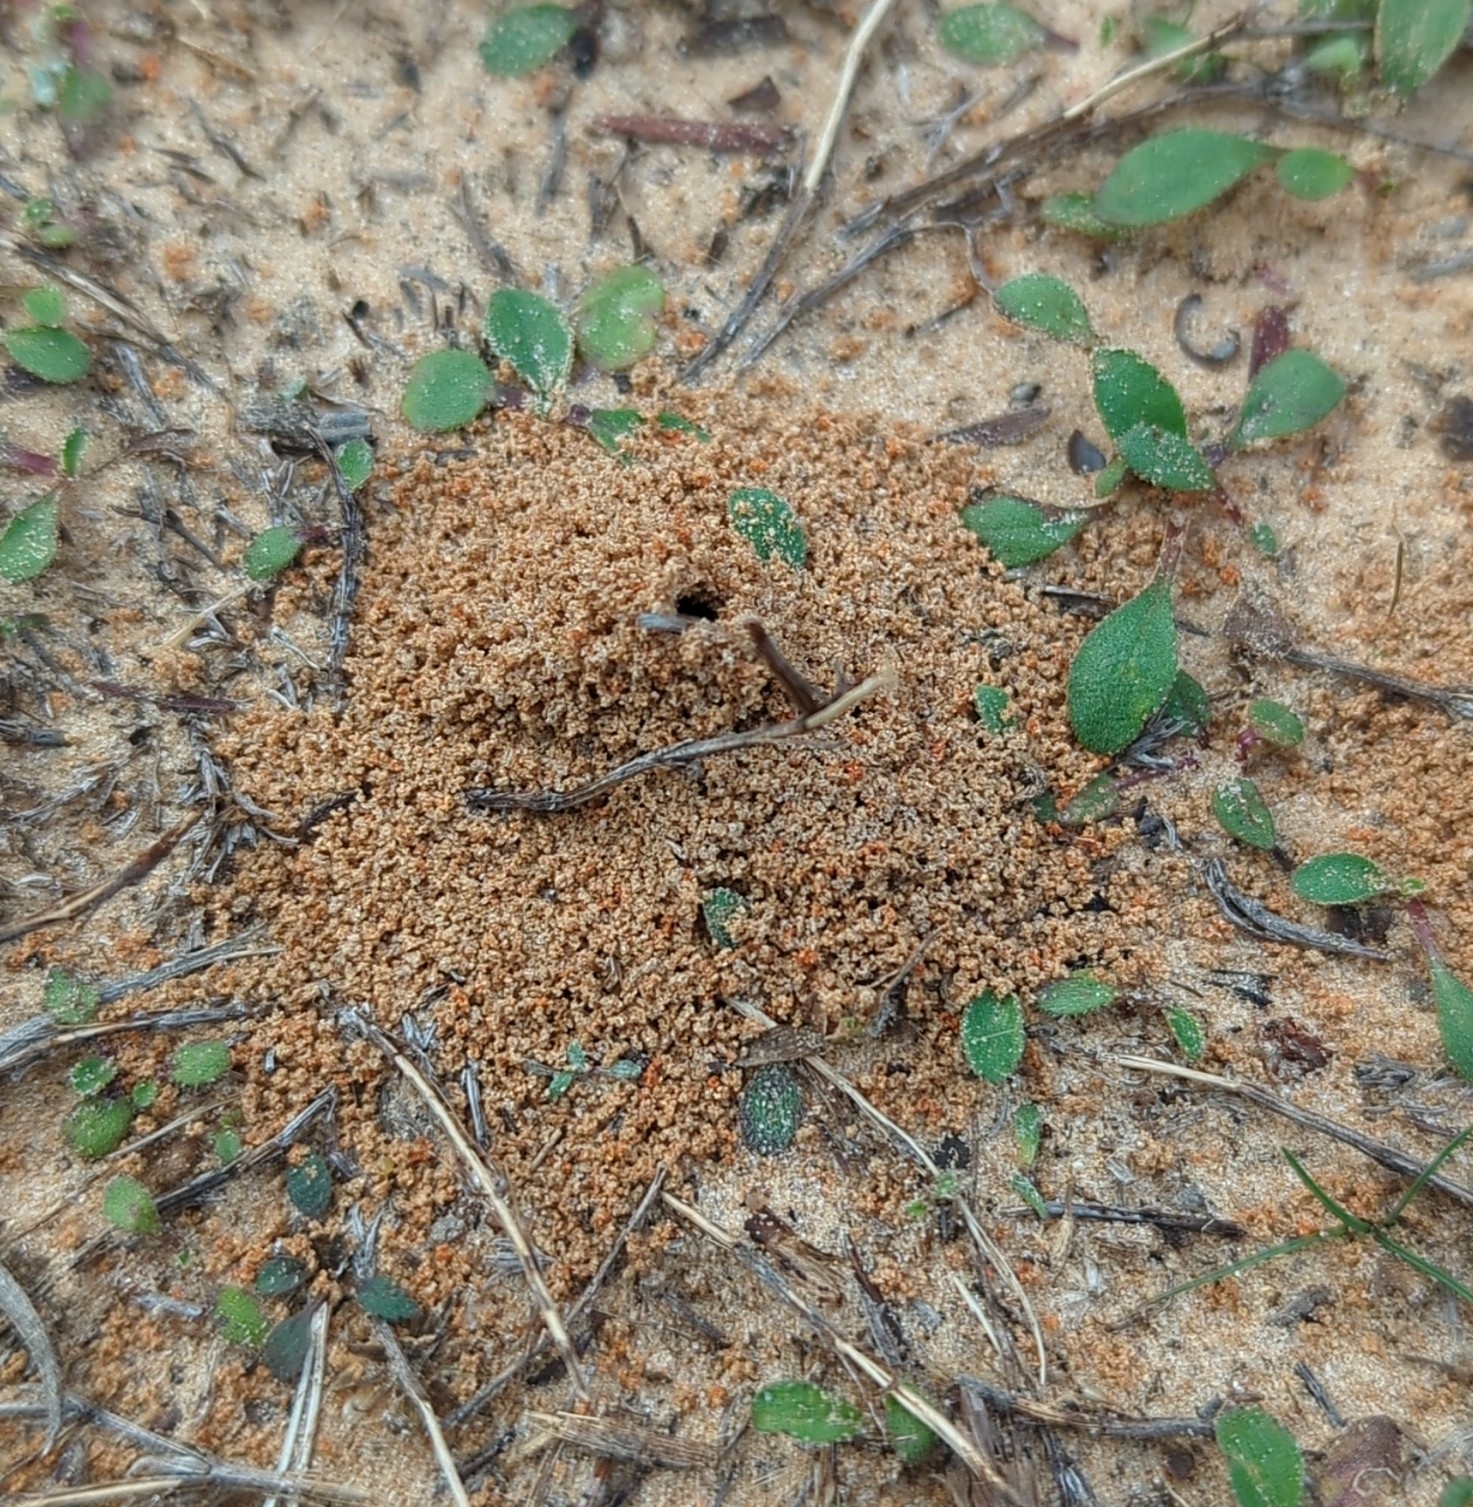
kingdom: Animalia
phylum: Arthropoda
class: Insecta
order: Hymenoptera
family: Formicidae
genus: Solenopsis
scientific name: Solenopsis invicta
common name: Red imported fire ant
